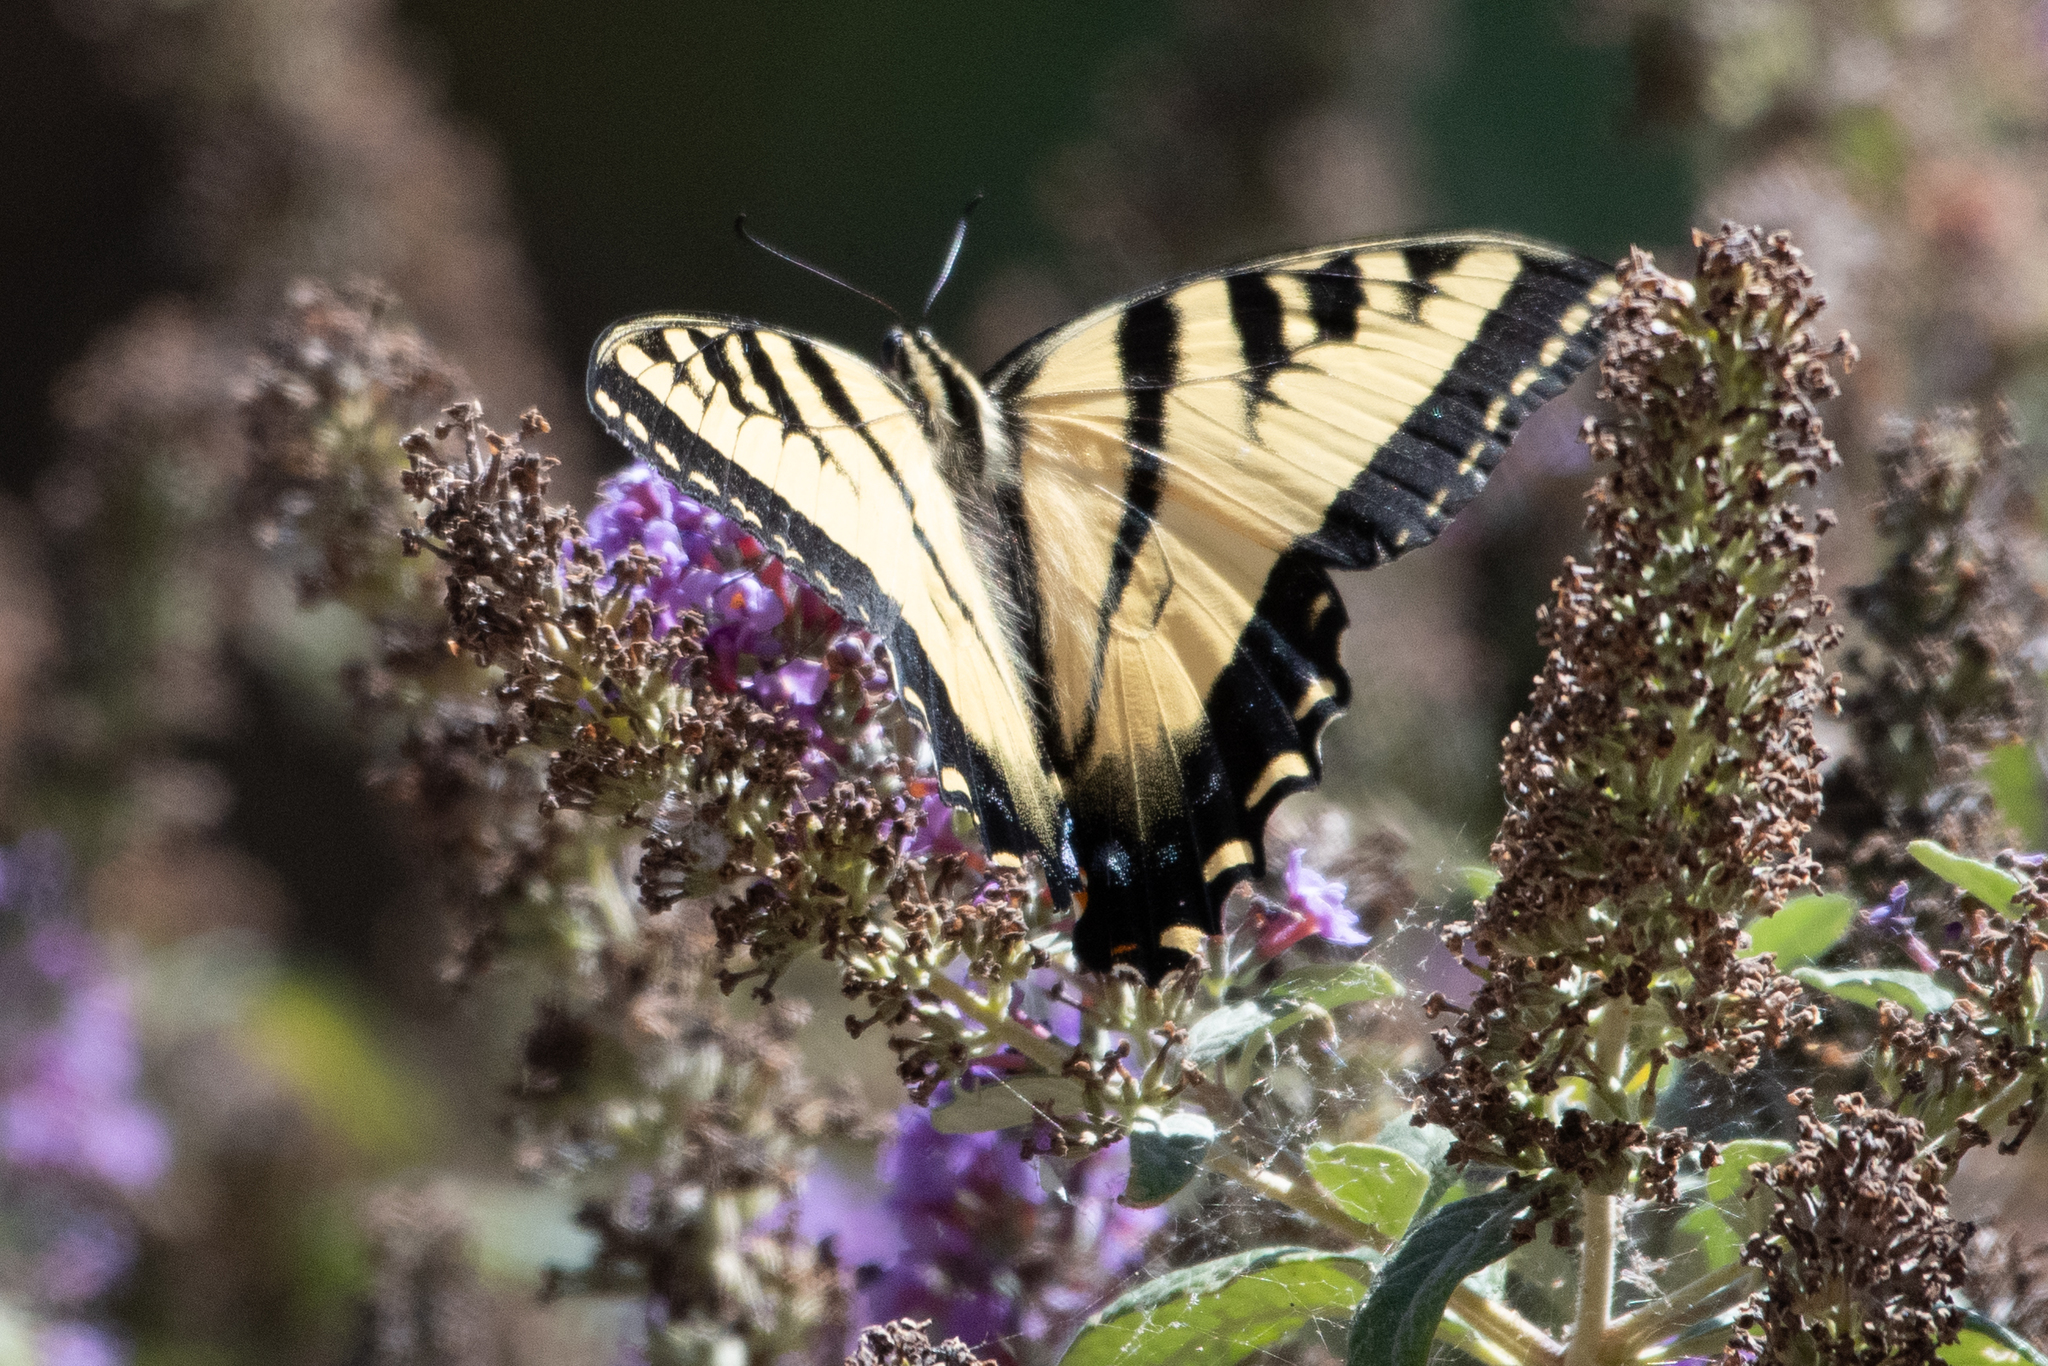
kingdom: Animalia
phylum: Arthropoda
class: Insecta
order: Lepidoptera
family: Papilionidae
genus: Papilio
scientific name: Papilio rutulus
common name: Western tiger swallowtail
